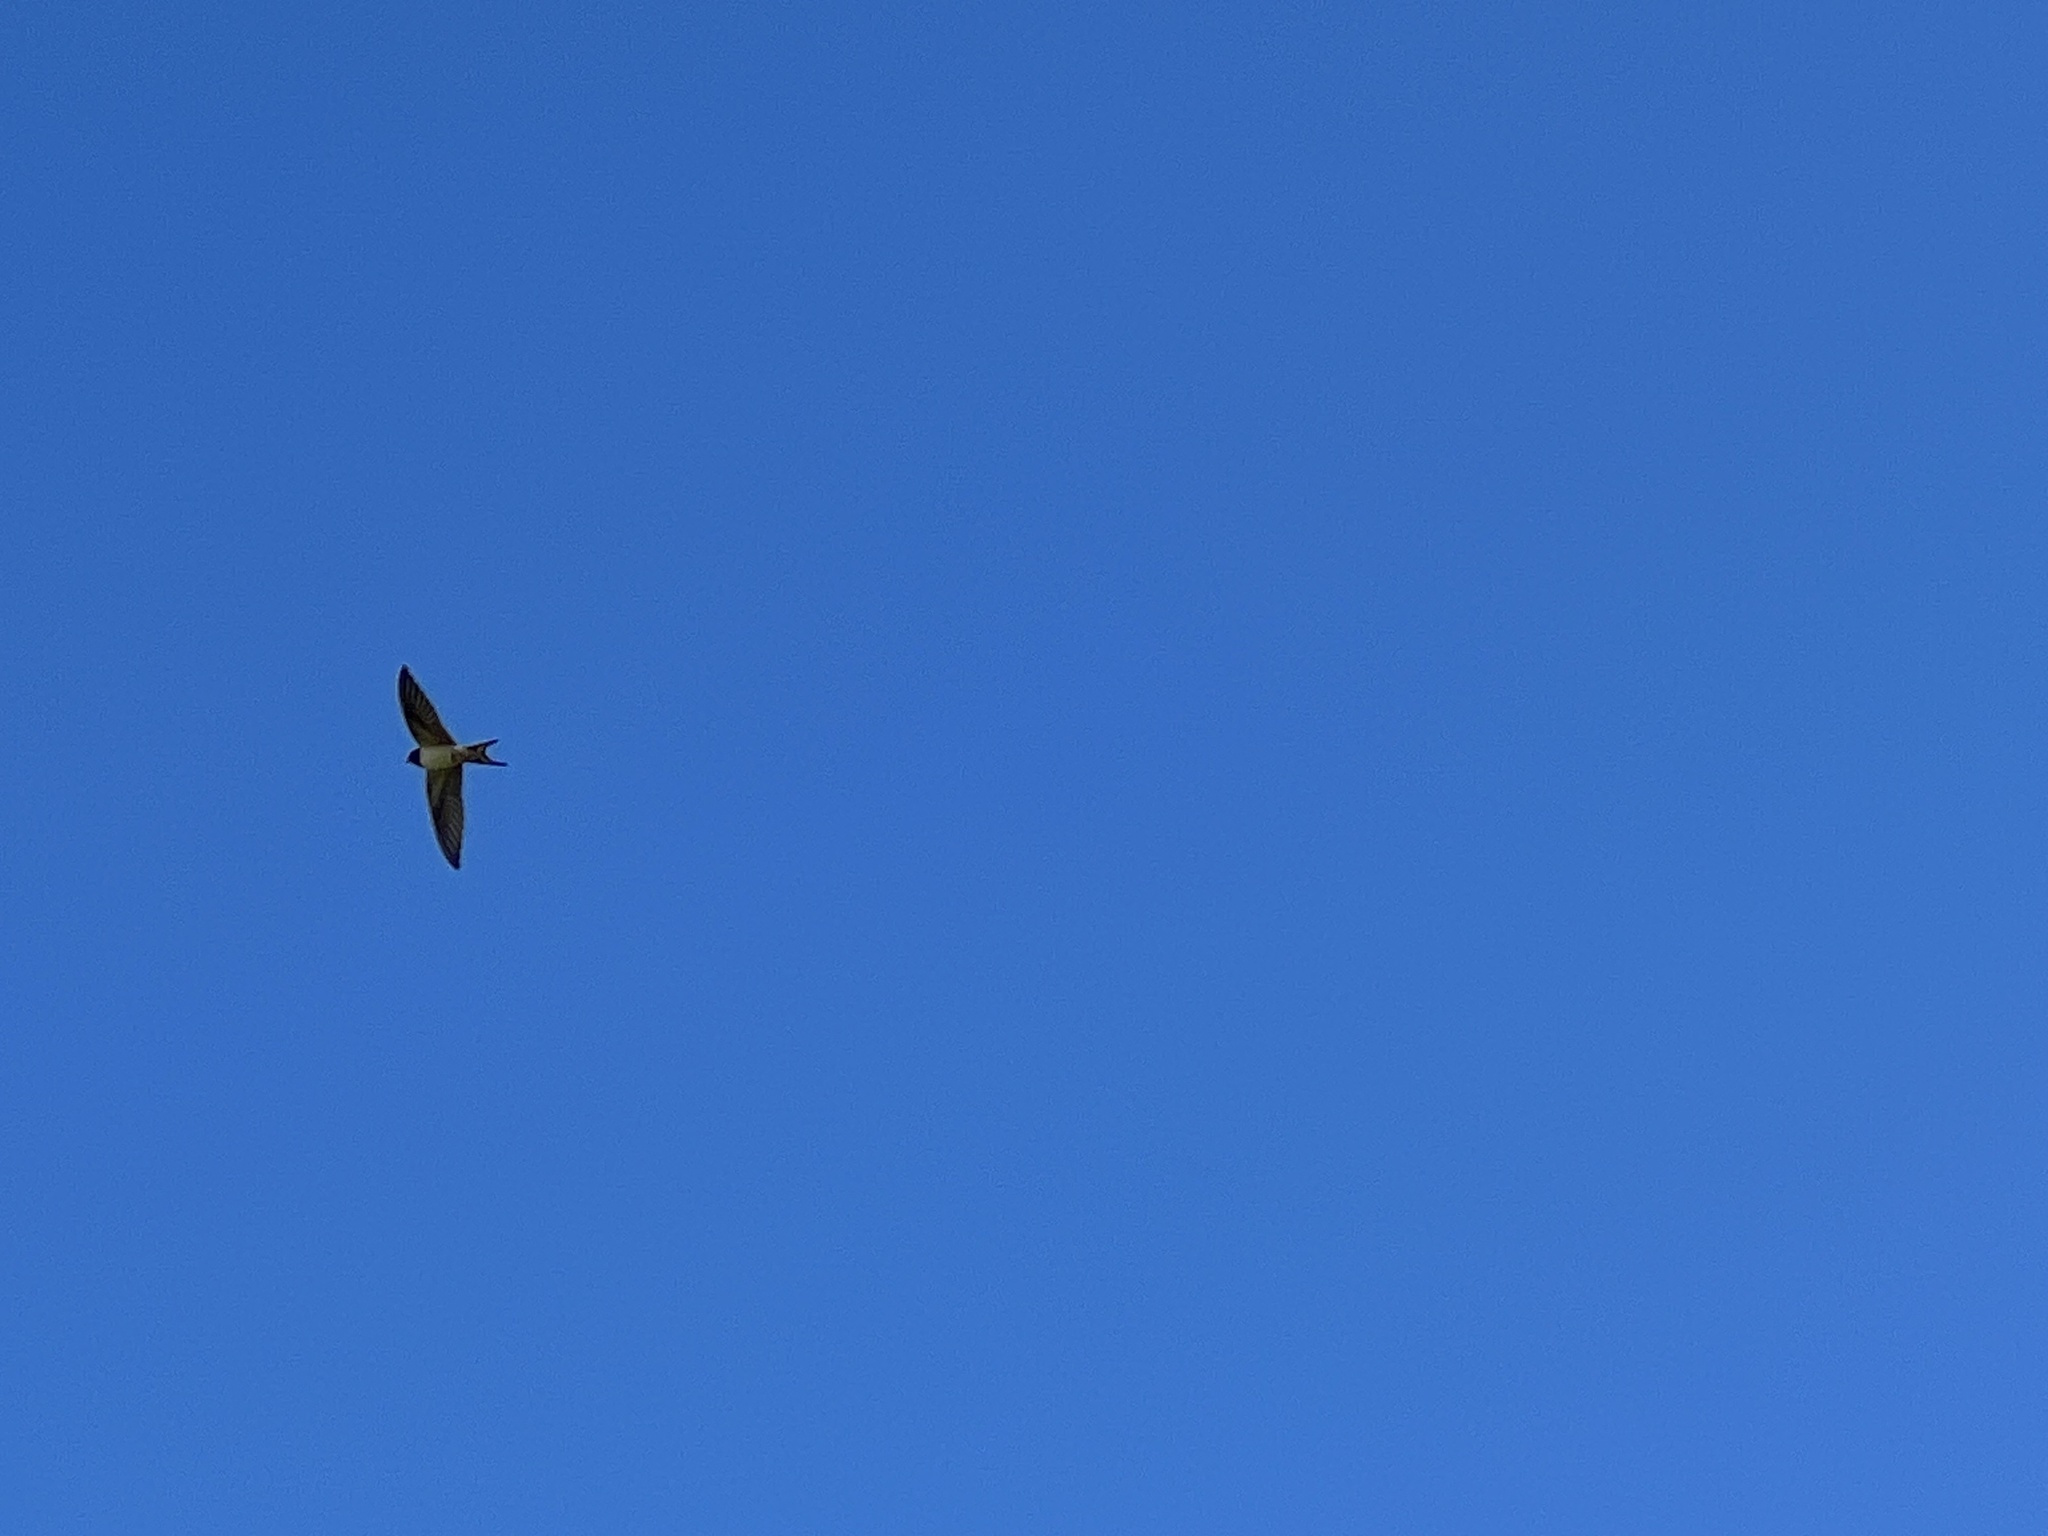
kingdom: Animalia
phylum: Chordata
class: Aves
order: Passeriformes
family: Hirundinidae
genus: Hirundo
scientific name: Hirundo rustica
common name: Barn swallow
